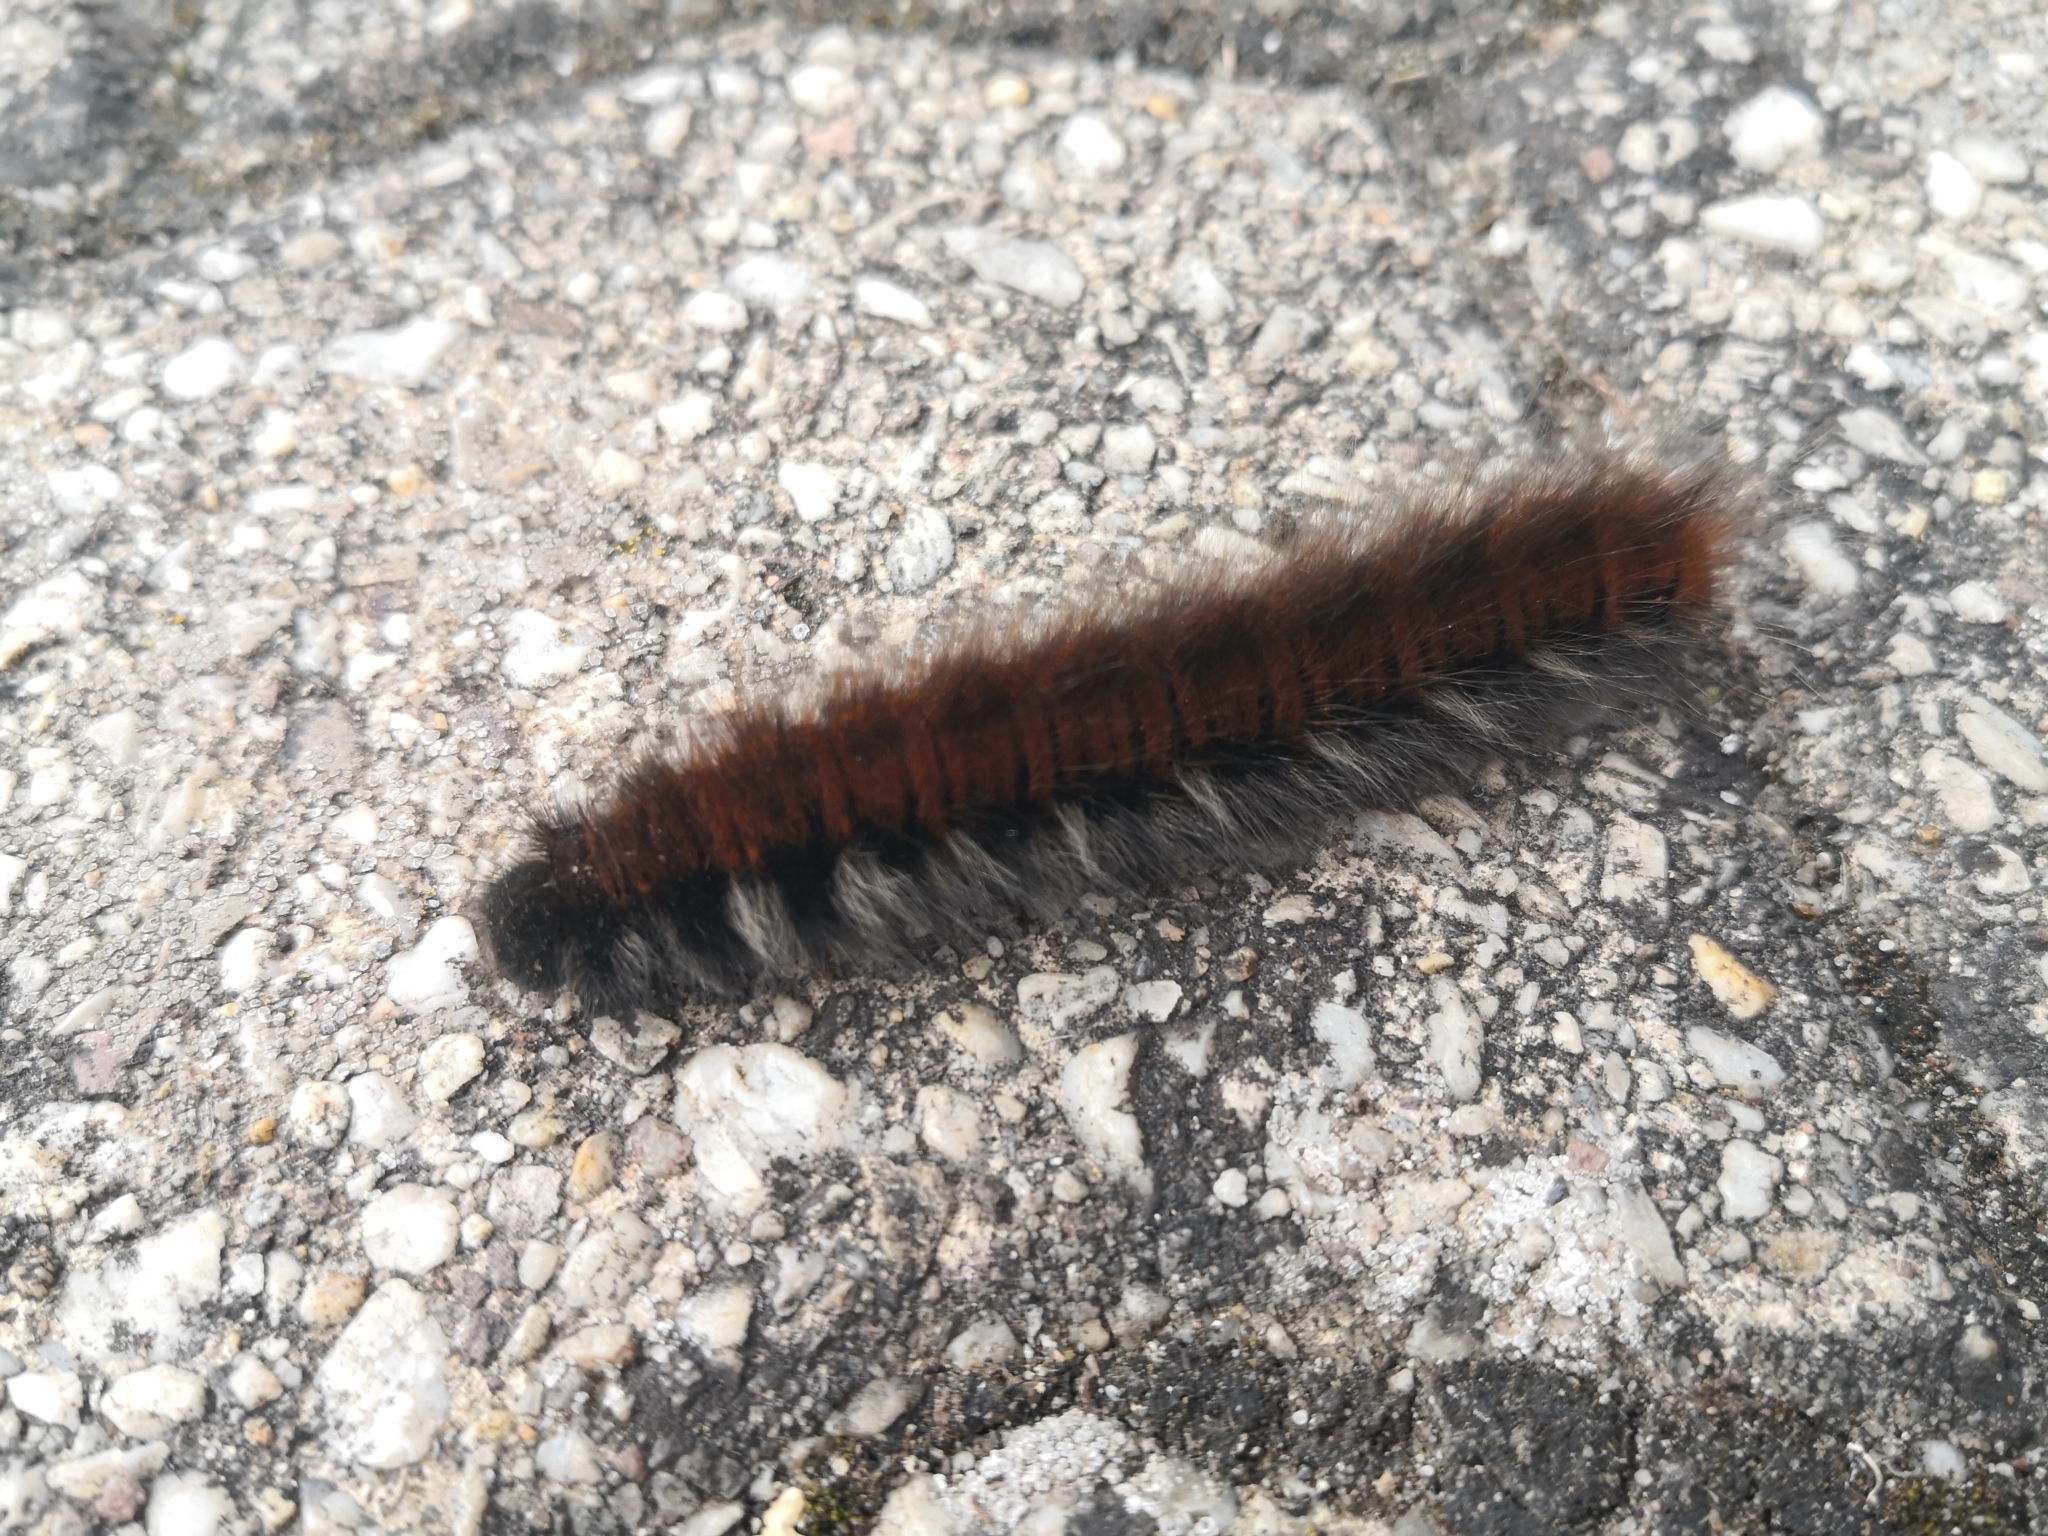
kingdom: Animalia
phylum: Arthropoda
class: Insecta
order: Lepidoptera
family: Lasiocampidae
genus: Macrothylacia
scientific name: Macrothylacia rubi
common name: Fox moth
